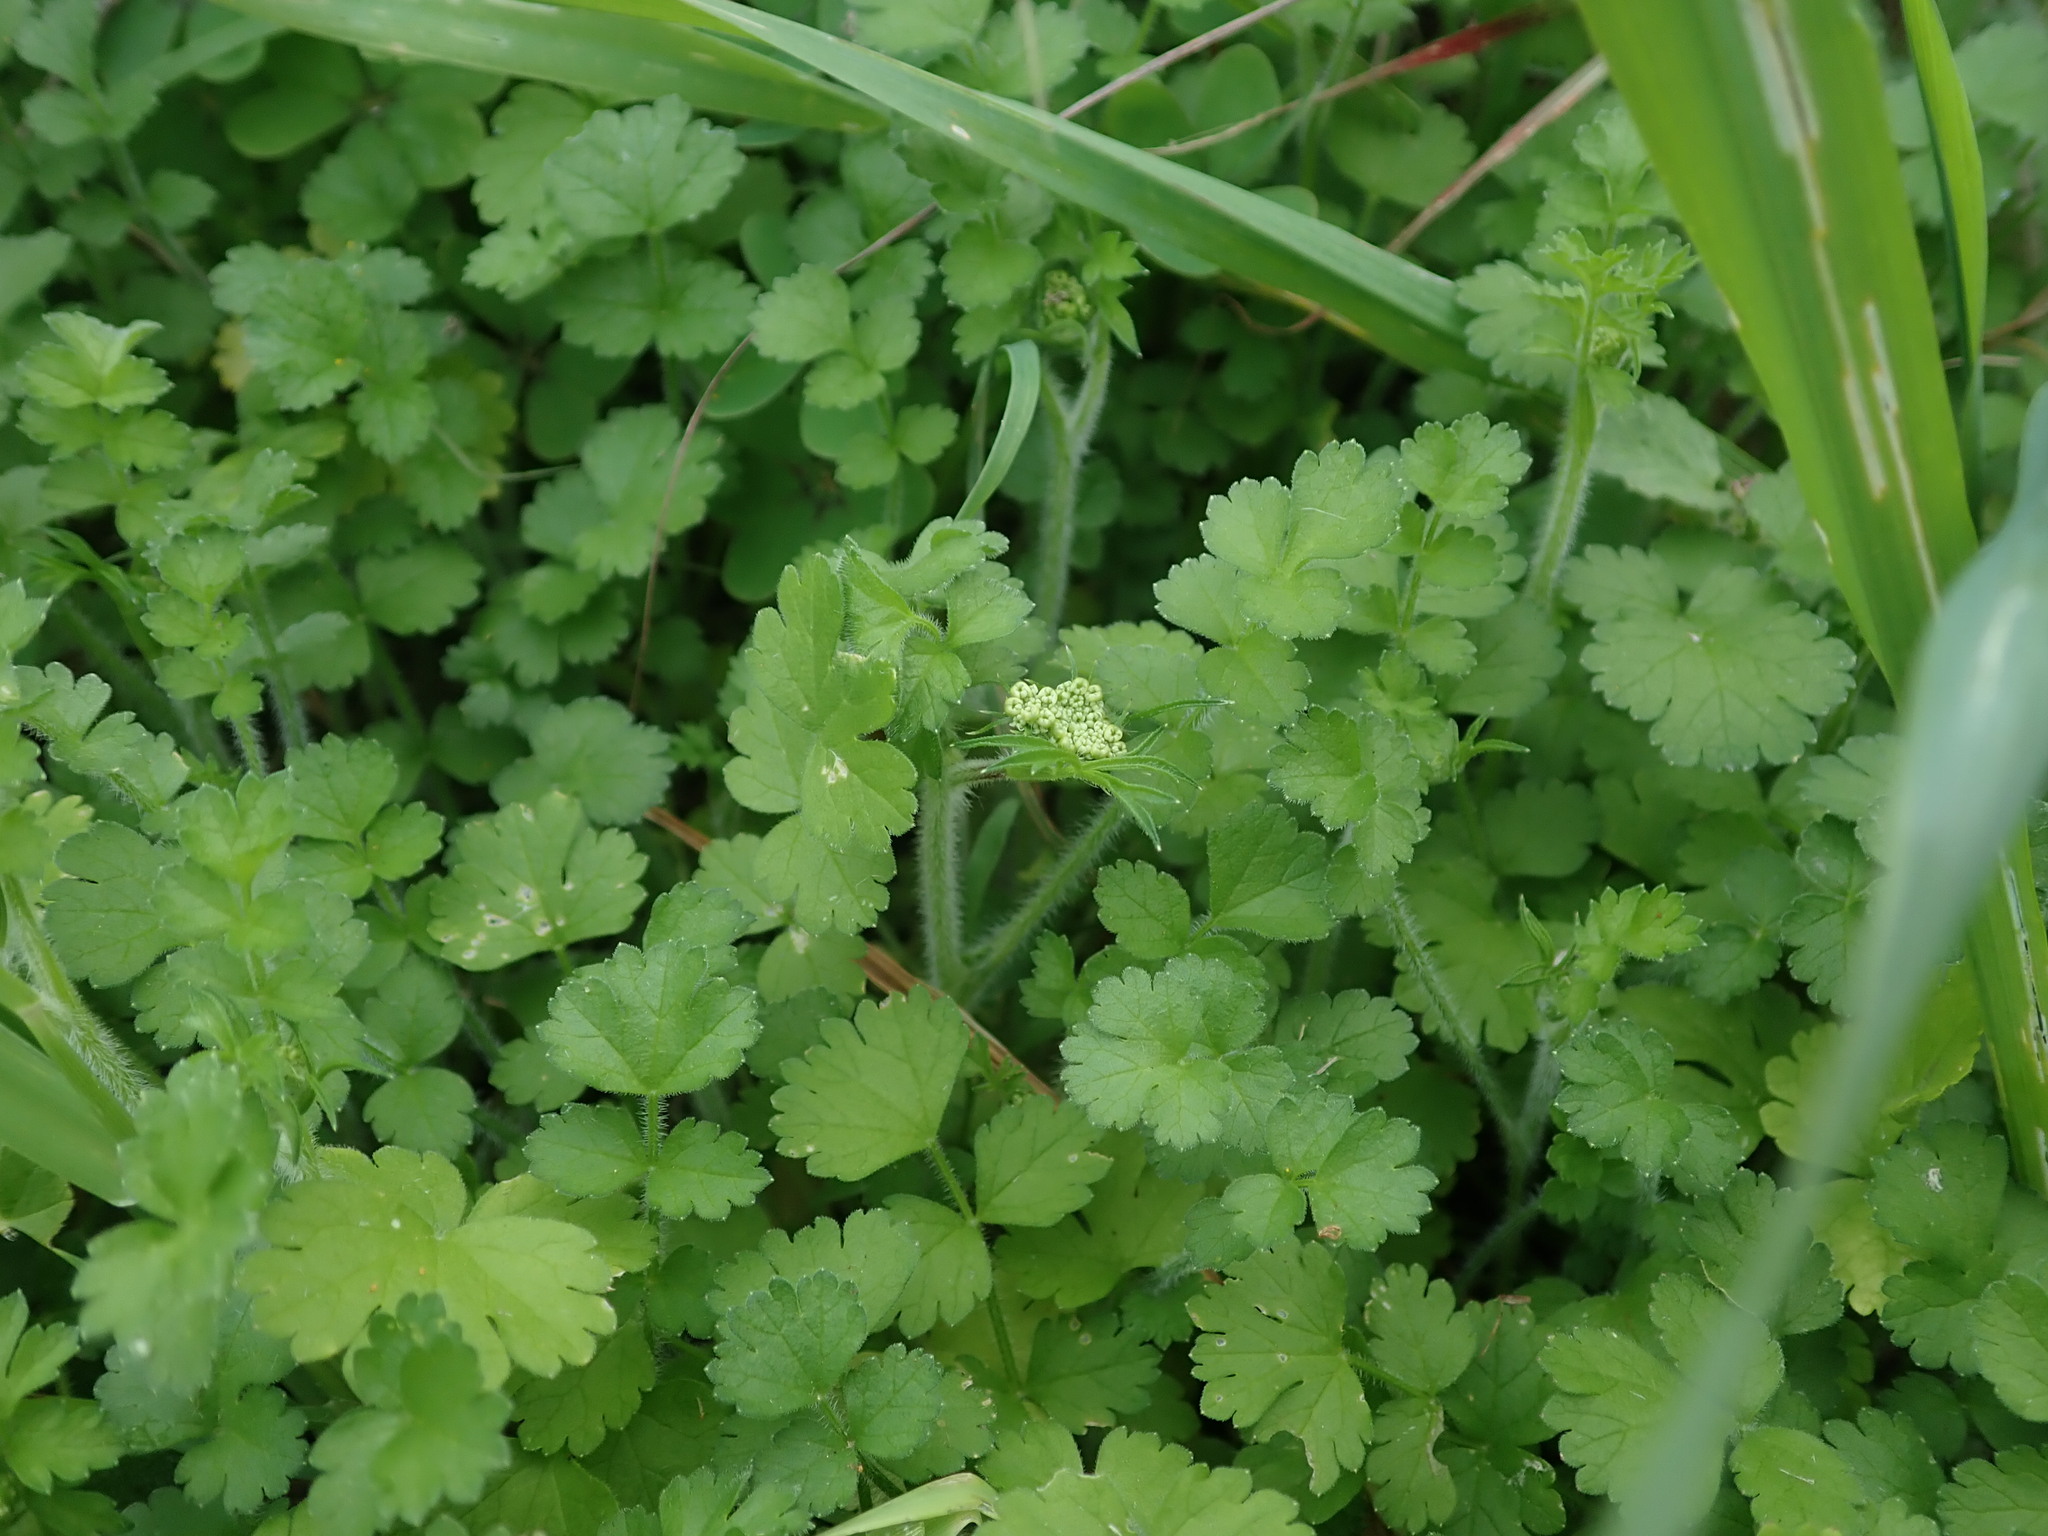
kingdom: Plantae
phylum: Tracheophyta
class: Magnoliopsida
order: Apiales
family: Apiaceae
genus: Tordylium
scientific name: Tordylium apulum
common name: Mediterranean hartwort
